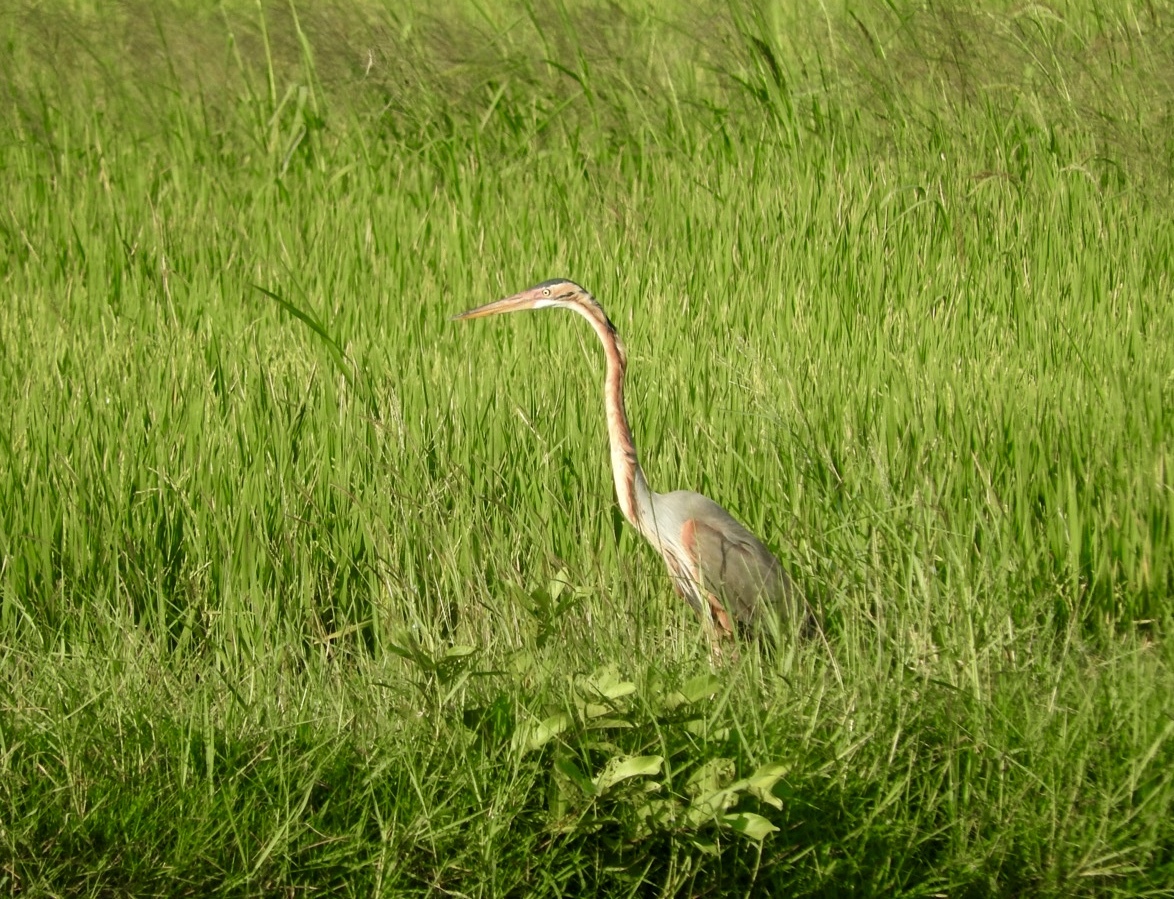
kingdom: Animalia
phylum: Chordata
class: Aves
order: Pelecaniformes
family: Ardeidae
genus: Ardea
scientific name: Ardea purpurea
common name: Purple heron
